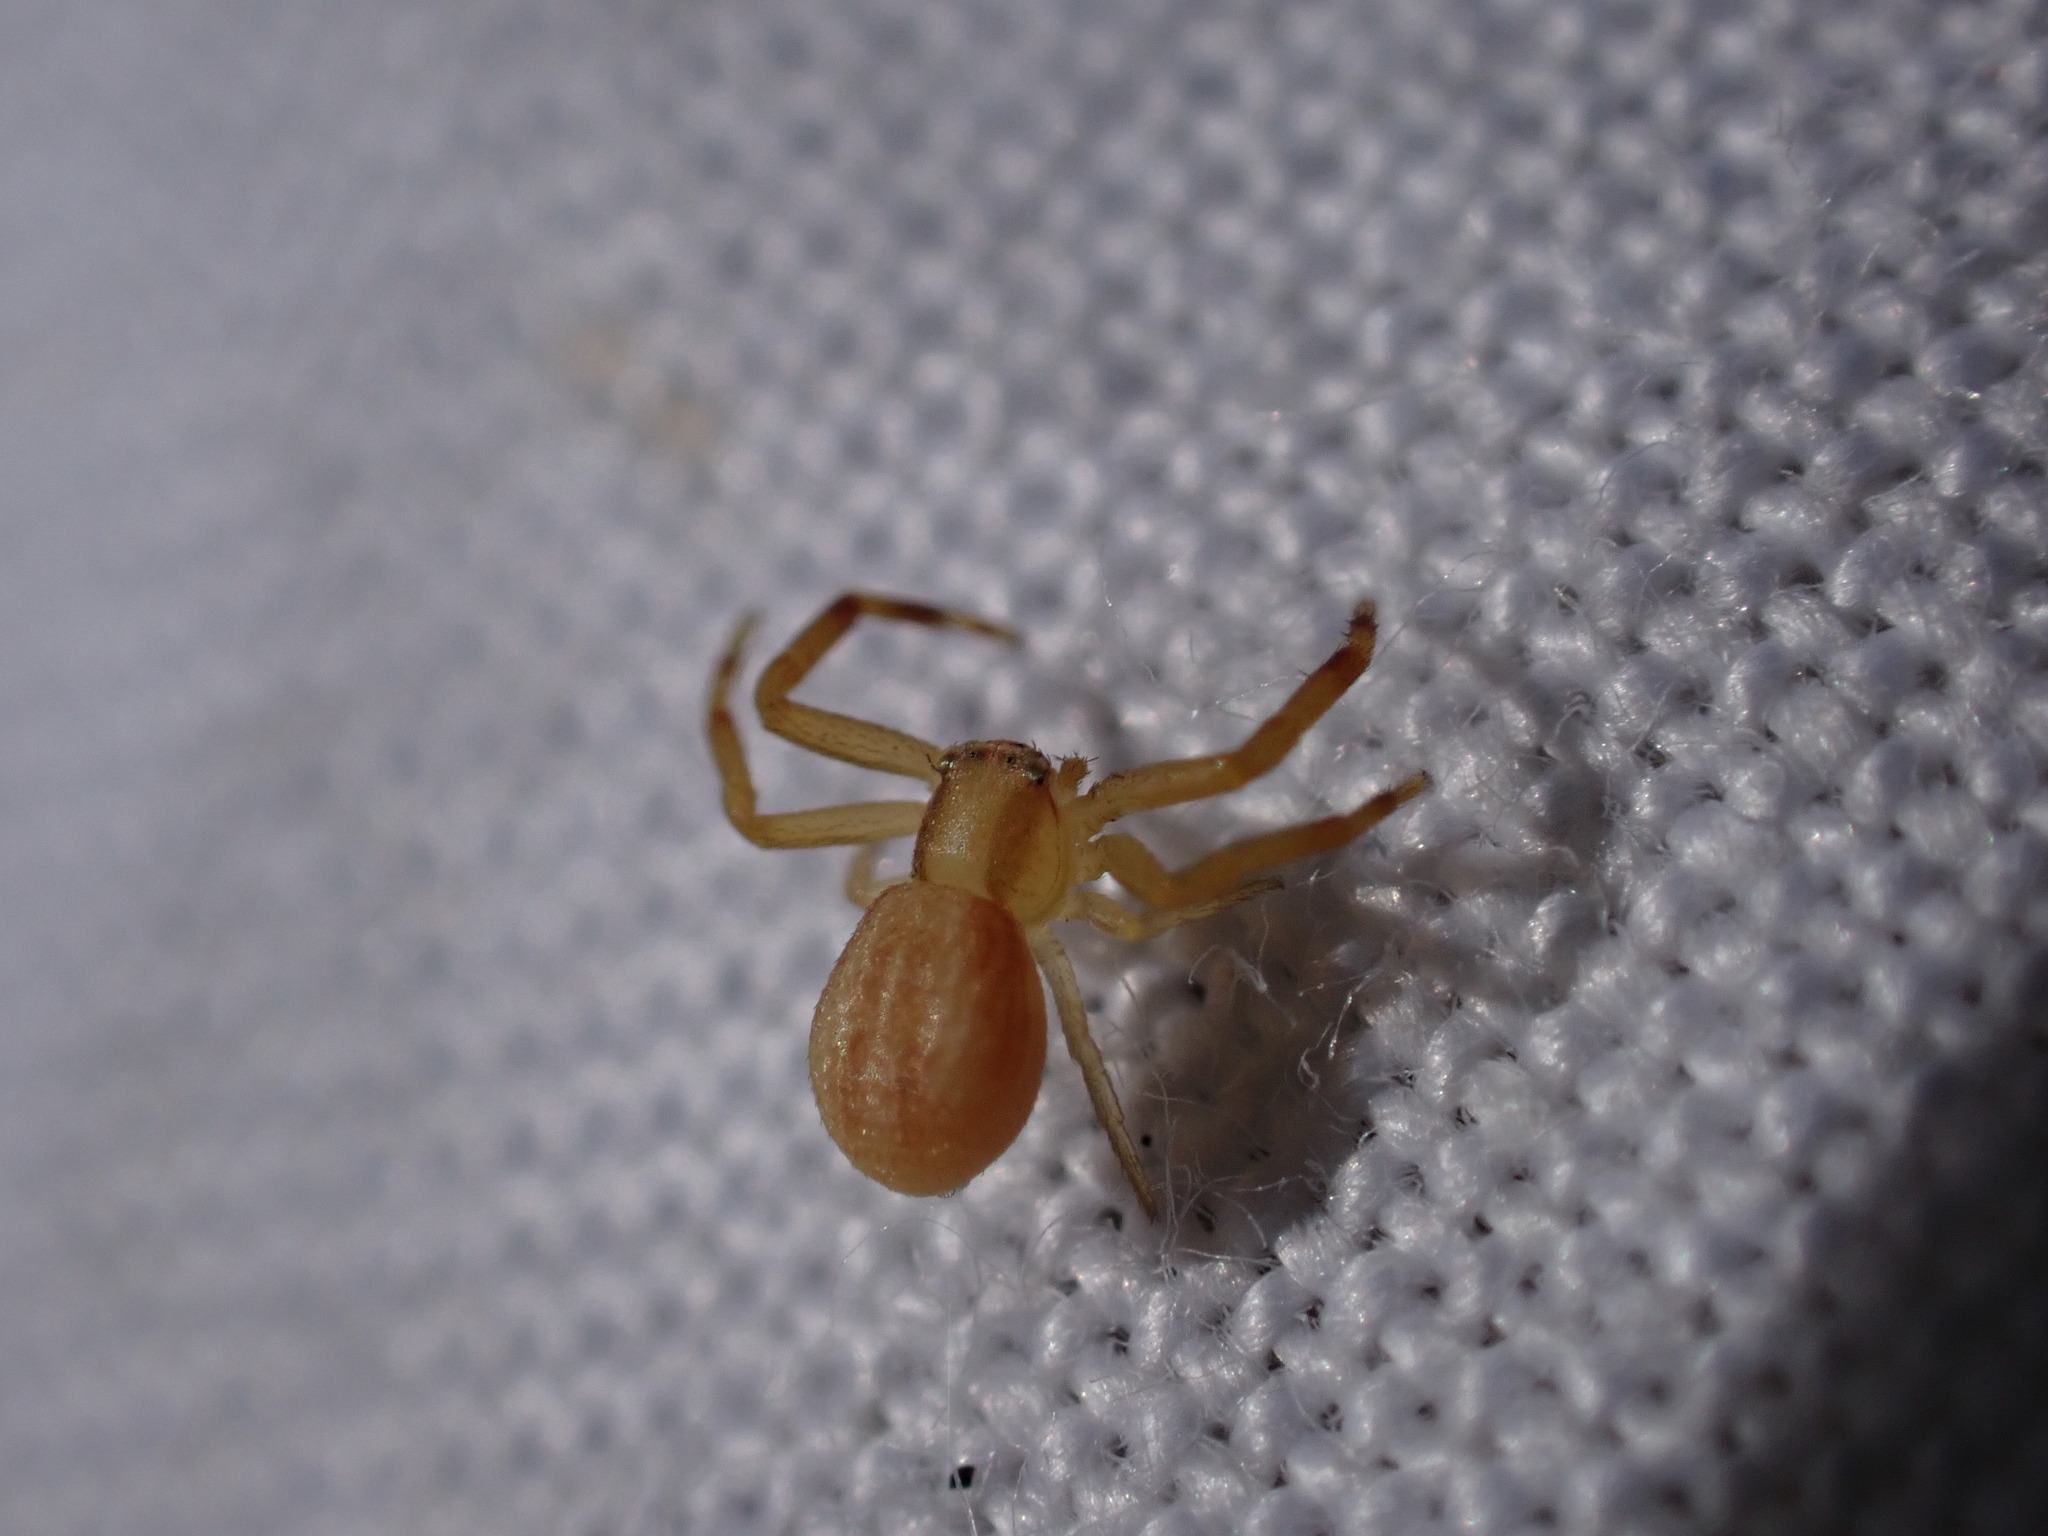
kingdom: Animalia
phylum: Arthropoda
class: Arachnida
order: Araneae
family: Thomisidae
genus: Runcinia
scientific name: Runcinia grammica
